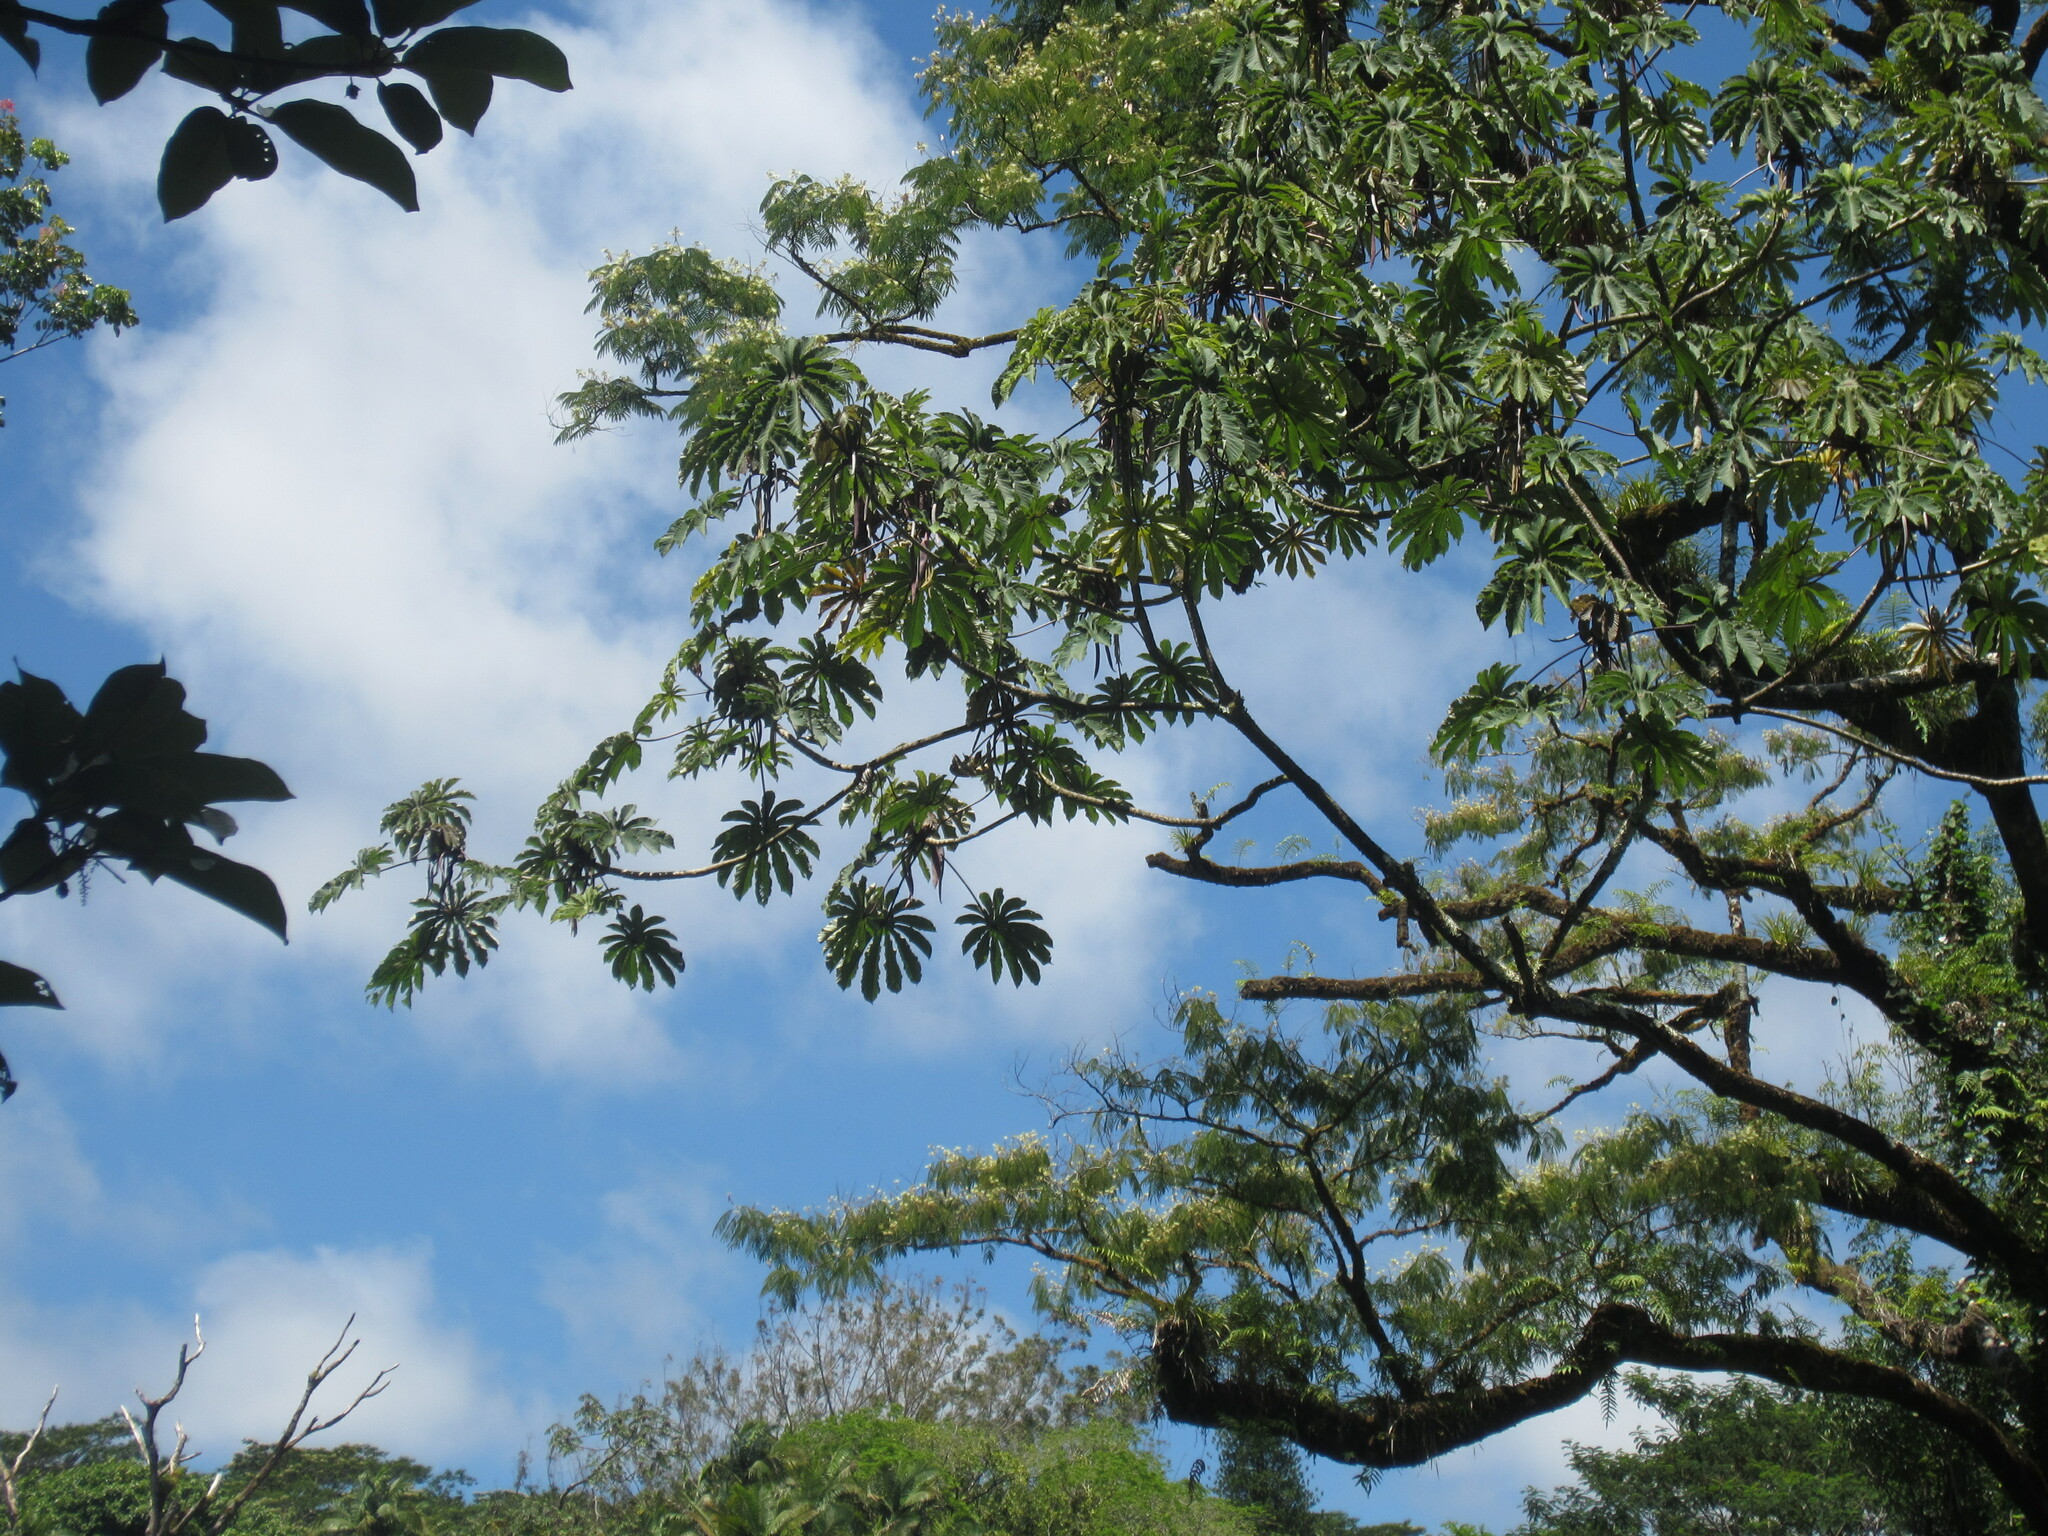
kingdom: Plantae
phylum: Tracheophyta
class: Magnoliopsida
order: Rosales
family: Urticaceae
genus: Cecropia
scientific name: Cecropia obtusifolia
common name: Trumpet tree
